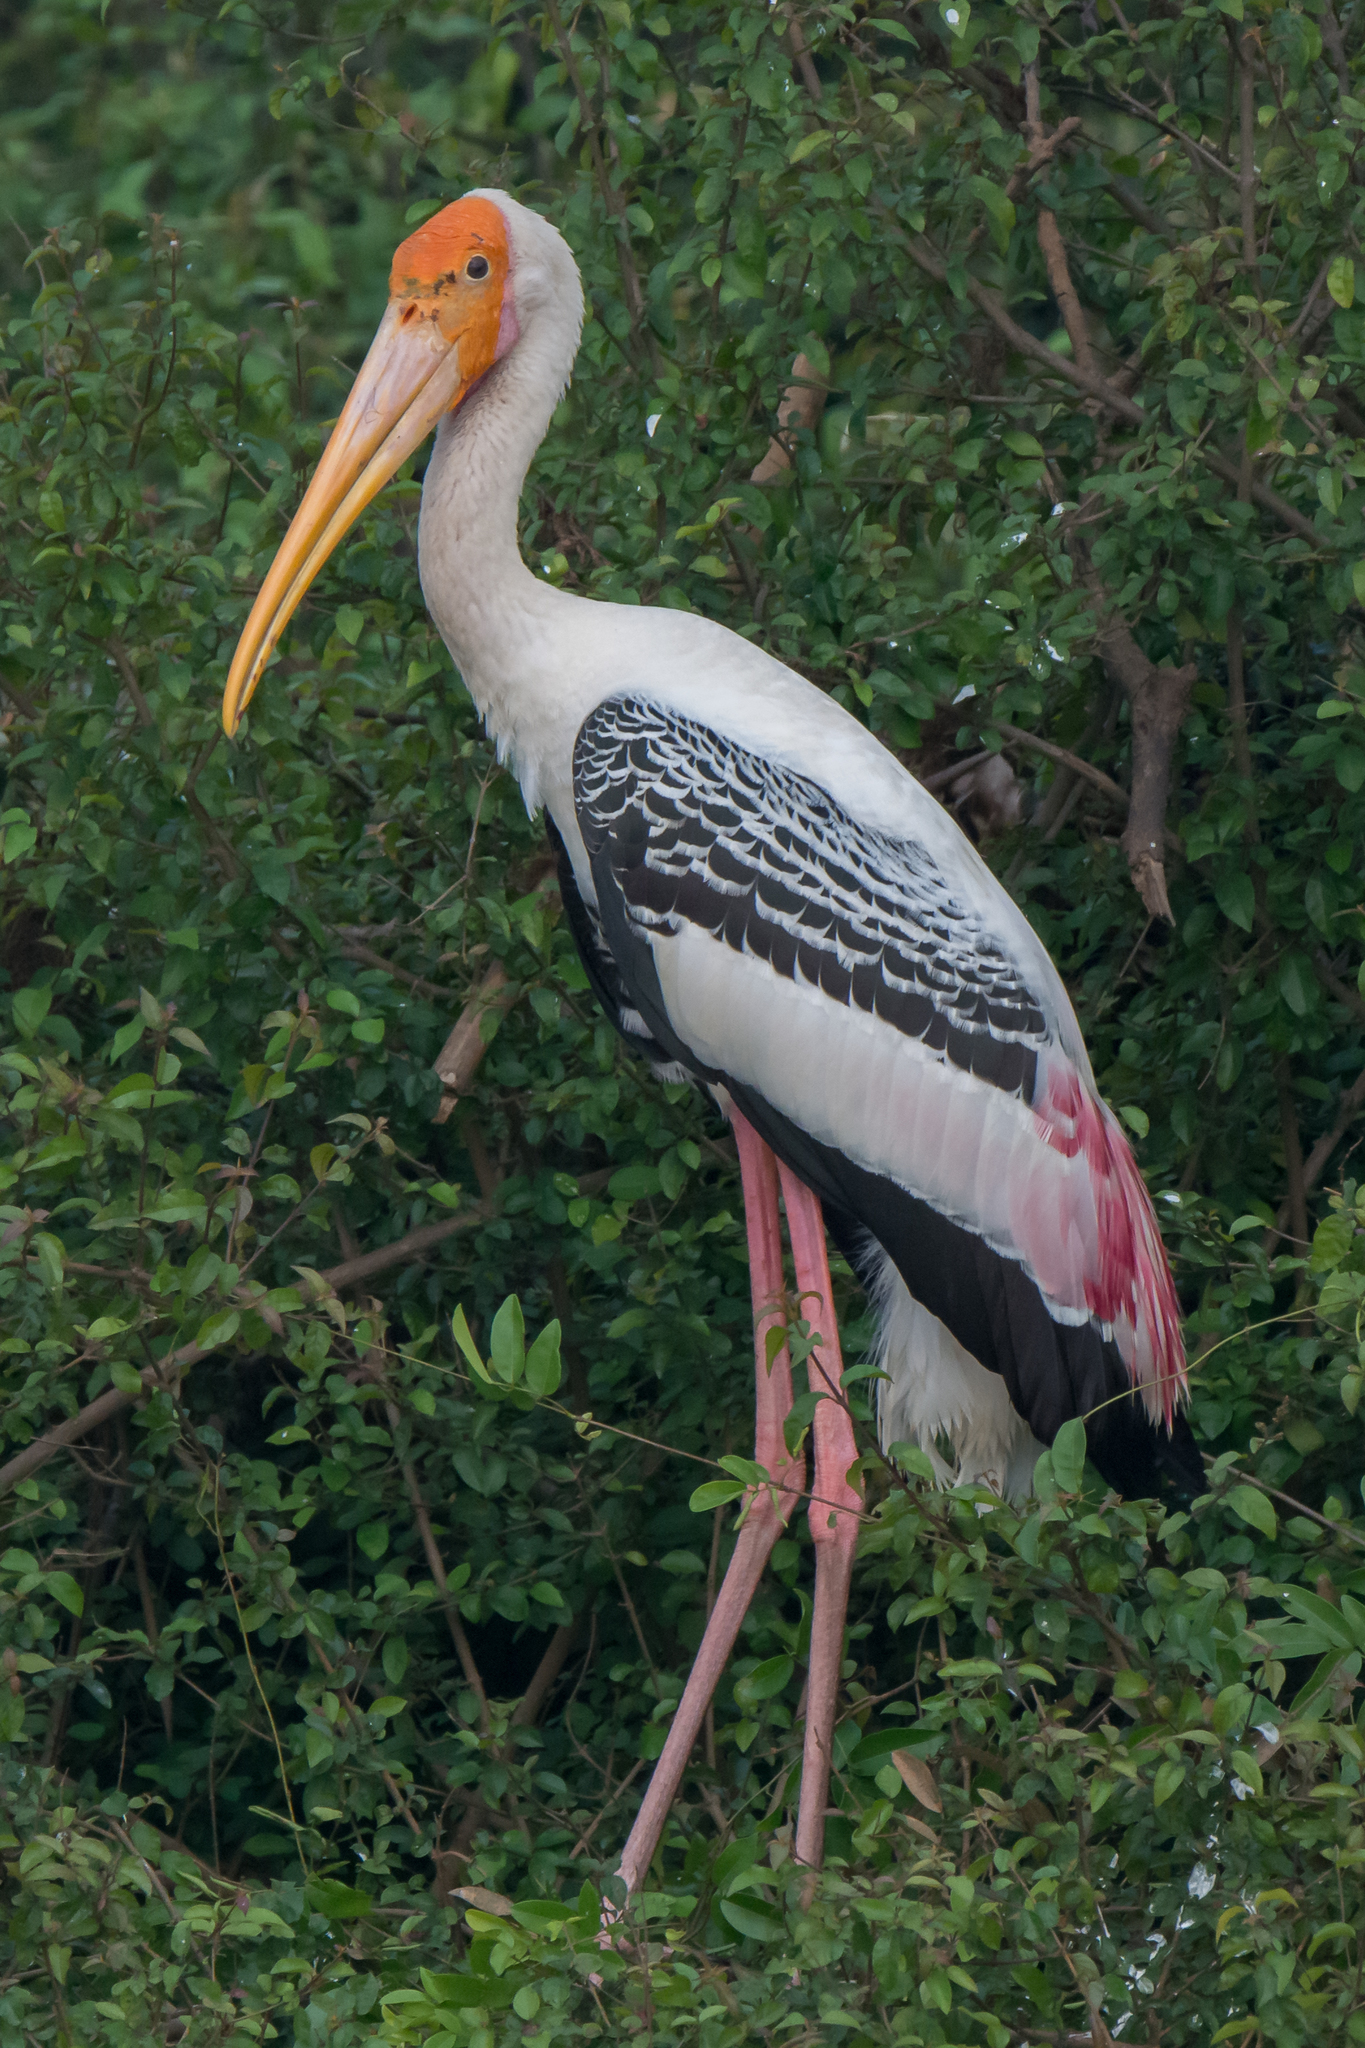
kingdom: Animalia
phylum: Chordata
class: Aves
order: Ciconiiformes
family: Ciconiidae
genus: Mycteria
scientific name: Mycteria leucocephala
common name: Painted stork
